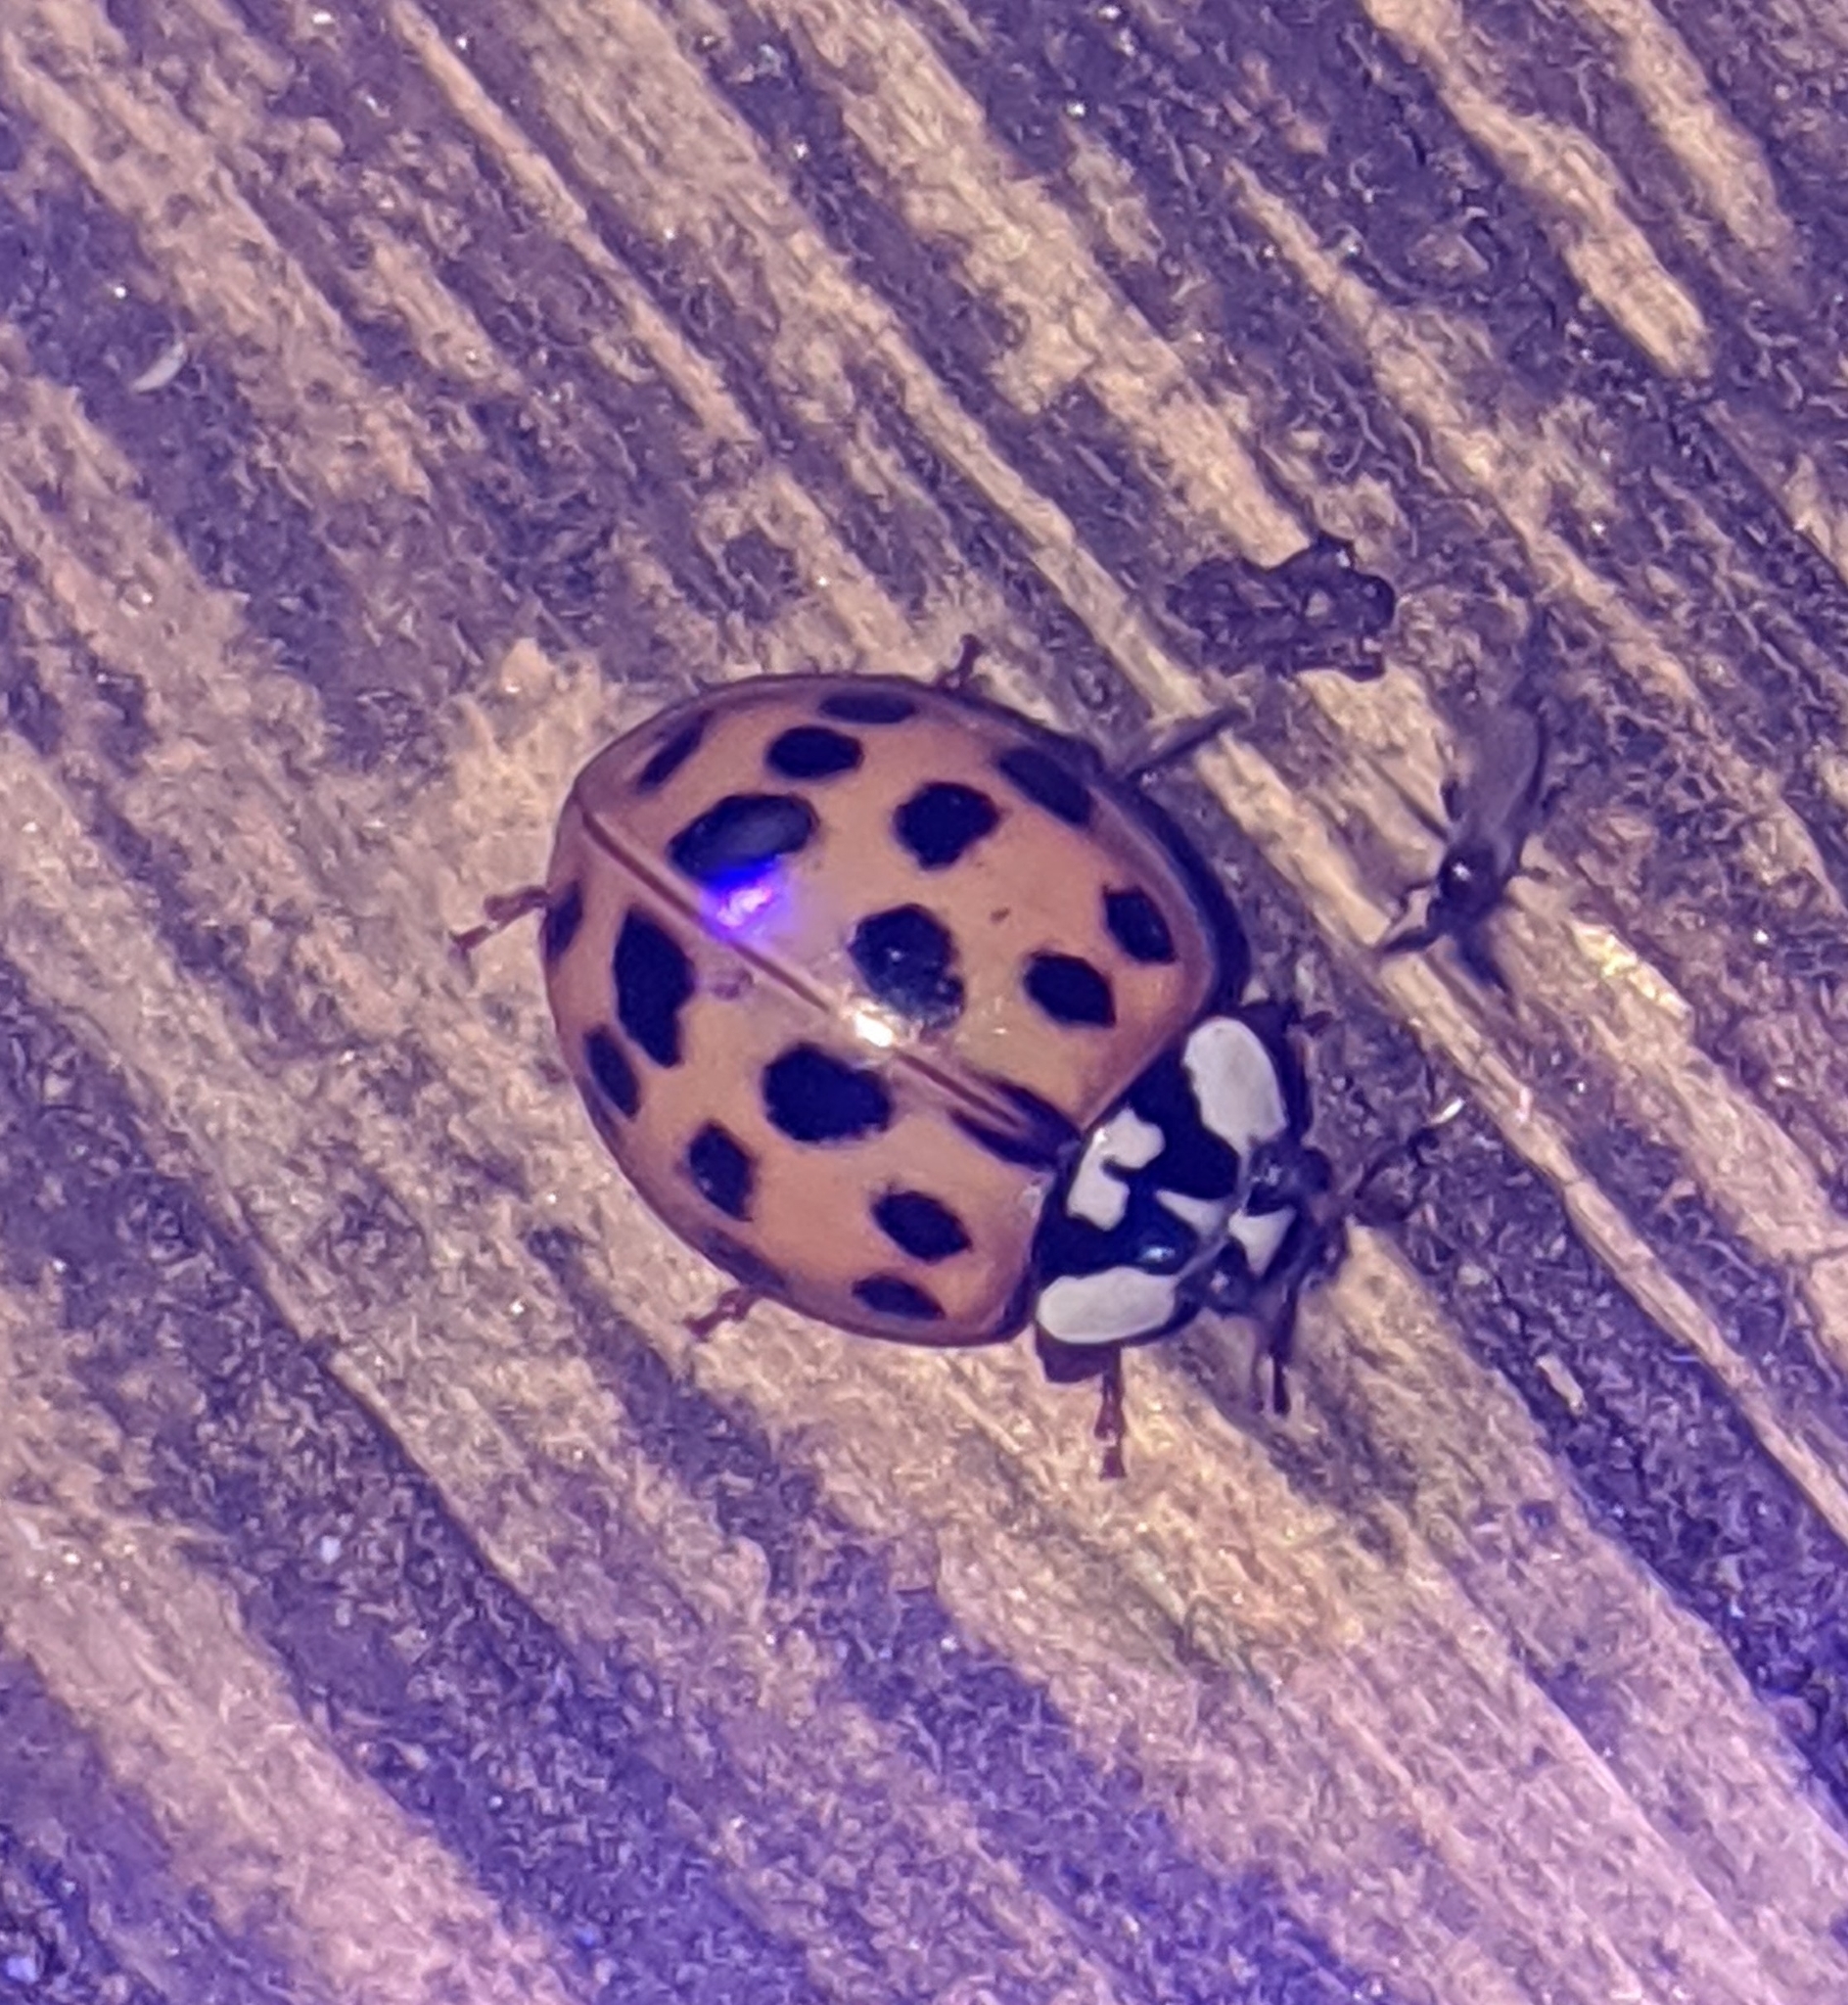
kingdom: Animalia
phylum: Arthropoda
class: Insecta
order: Coleoptera
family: Coccinellidae
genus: Harmonia
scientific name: Harmonia axyridis
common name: Harlequin ladybird
